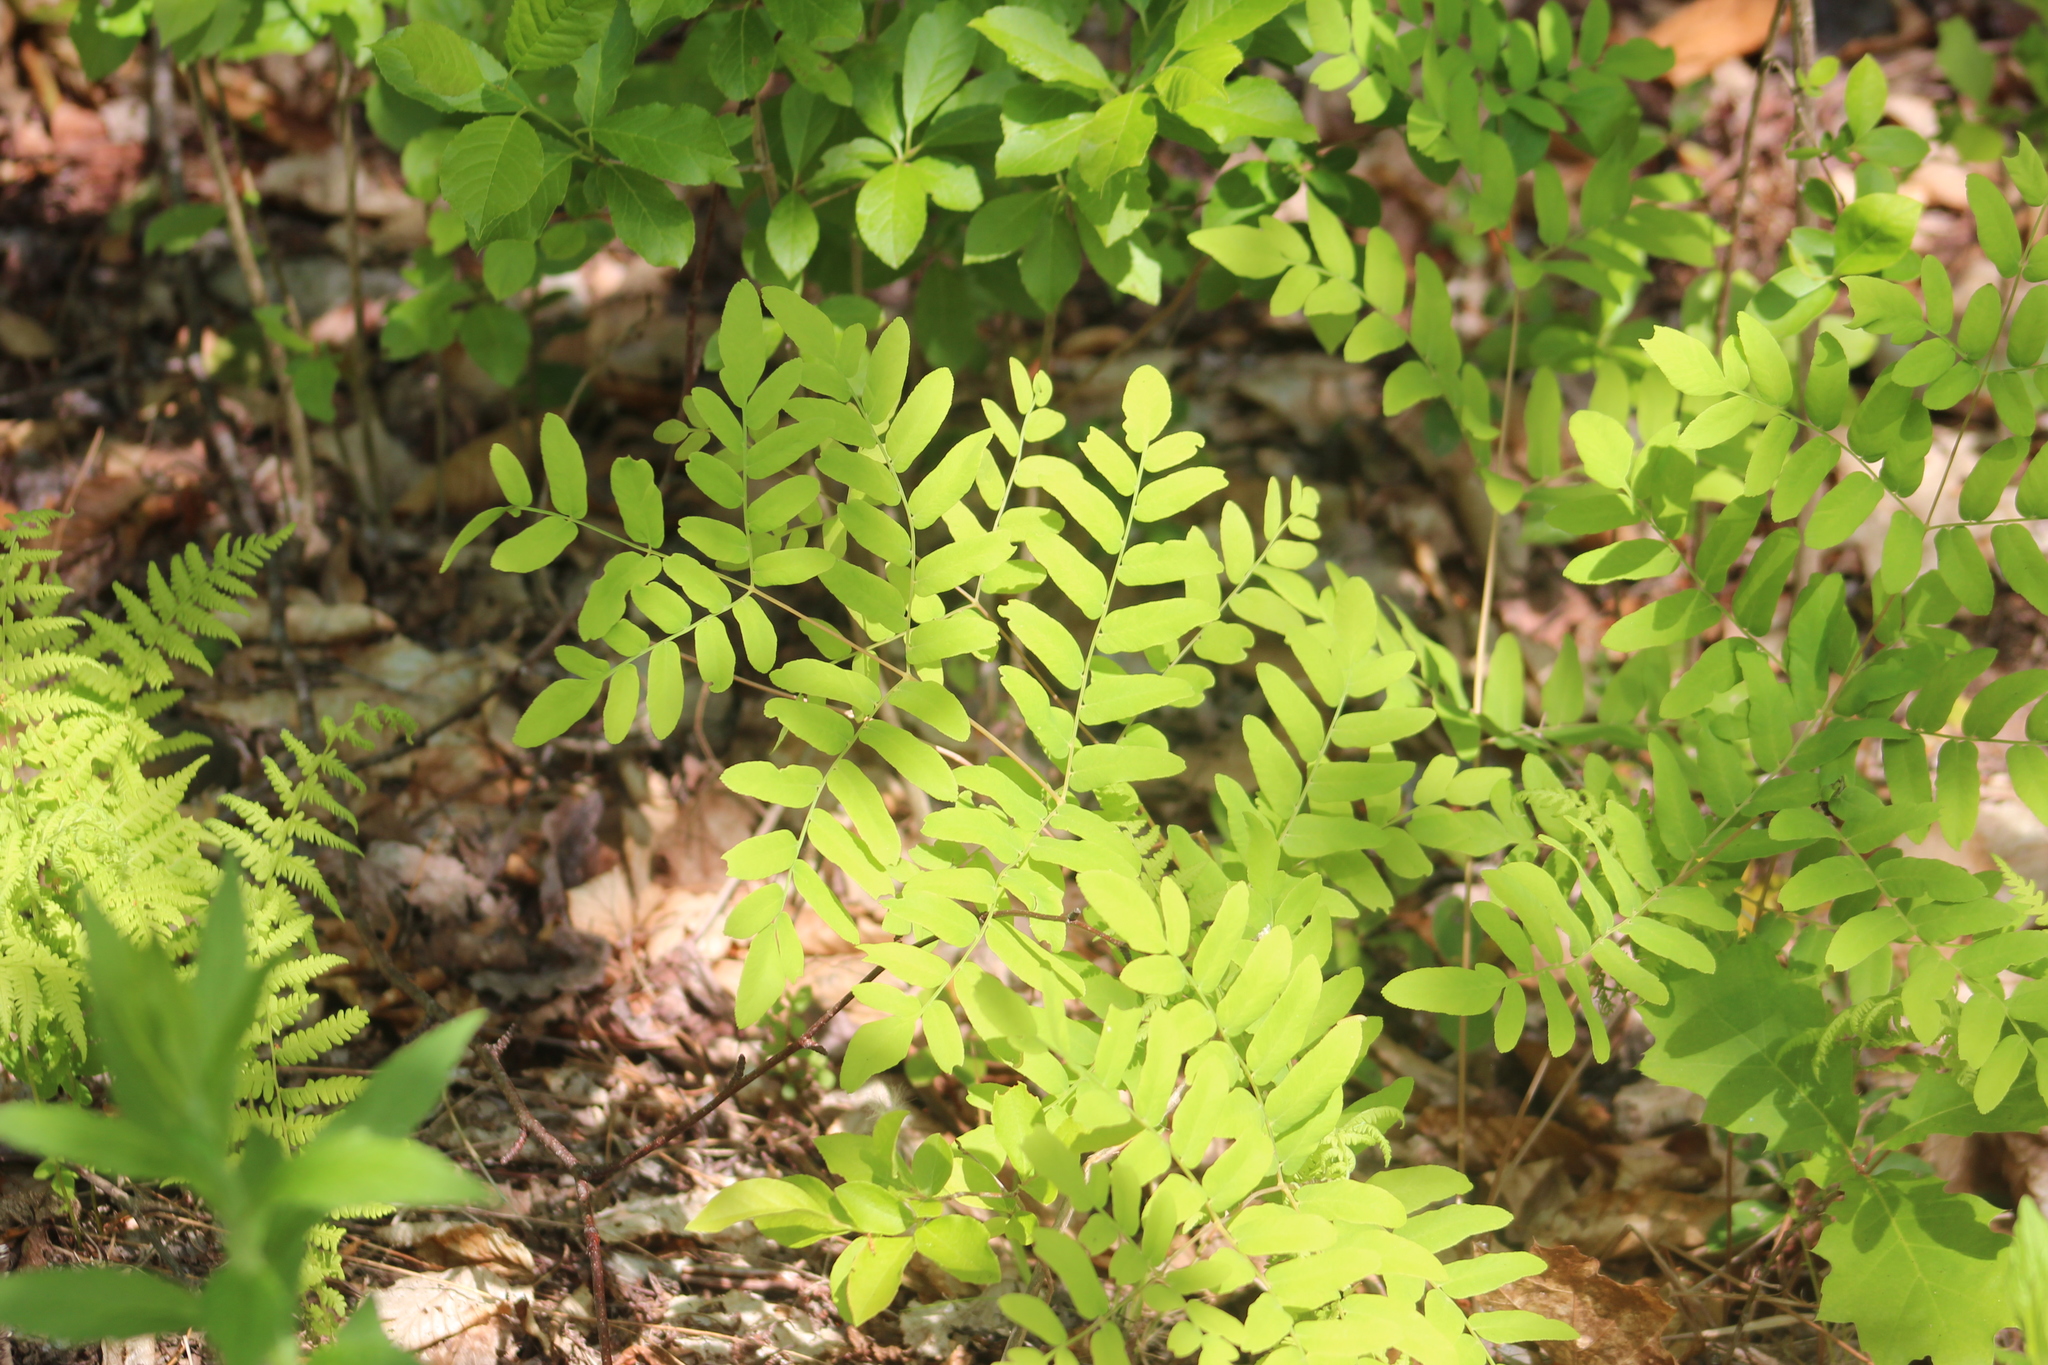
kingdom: Plantae
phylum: Tracheophyta
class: Polypodiopsida
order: Osmundales
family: Osmundaceae
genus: Osmunda
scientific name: Osmunda spectabilis
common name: American royal fern
